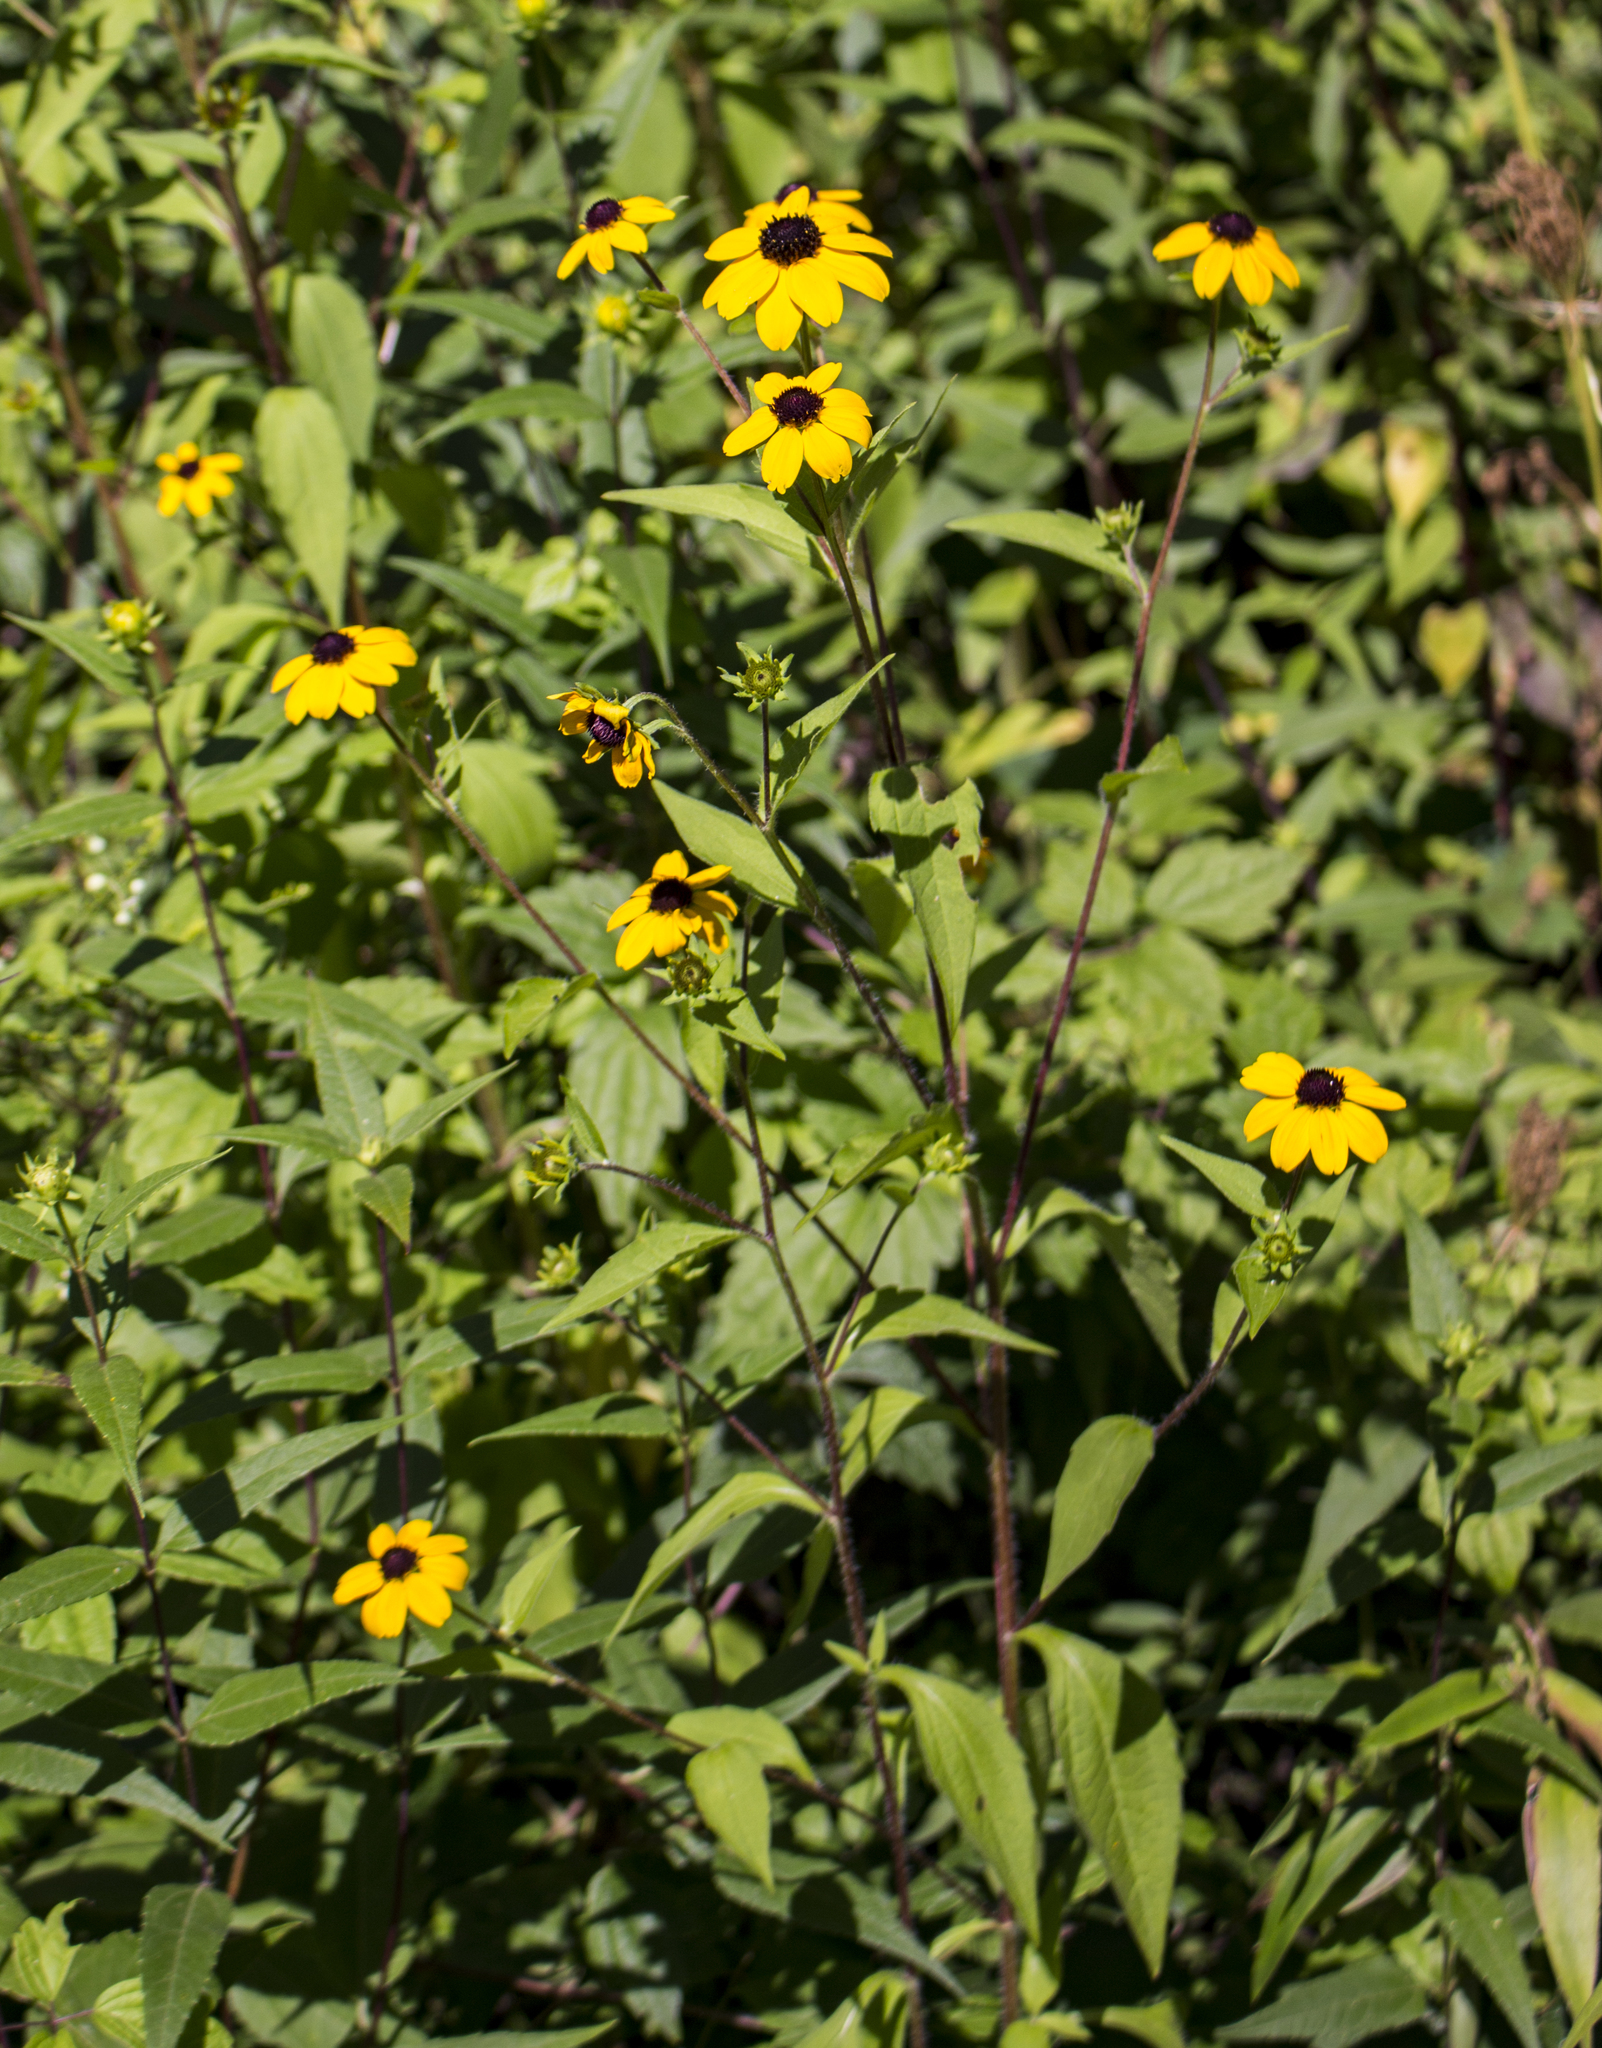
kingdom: Plantae
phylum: Tracheophyta
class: Magnoliopsida
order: Asterales
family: Asteraceae
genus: Rudbeckia
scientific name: Rudbeckia triloba
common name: Thin-leaved coneflower
